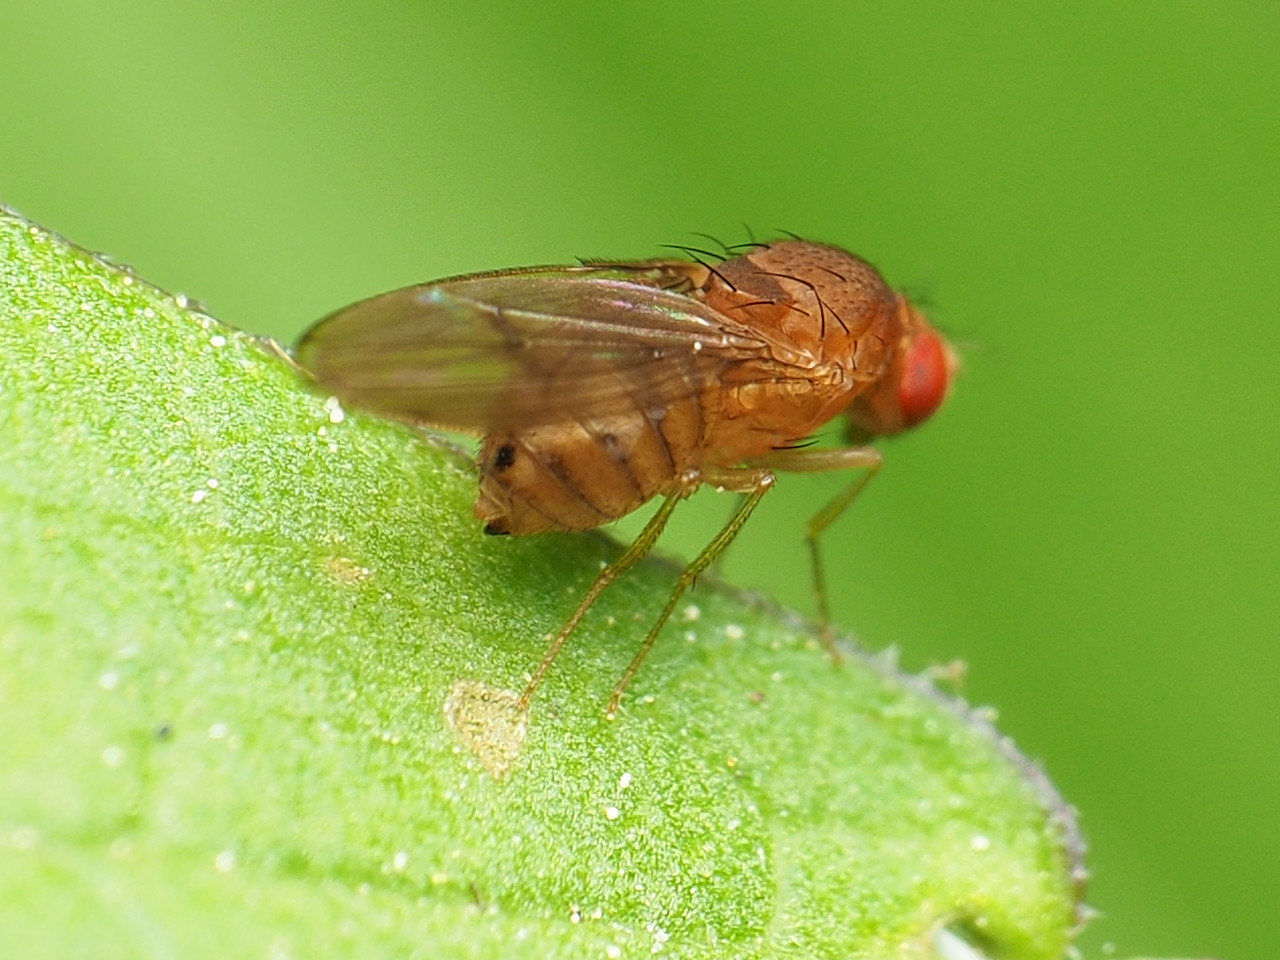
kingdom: Animalia
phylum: Arthropoda
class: Insecta
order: Diptera
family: Drosophilidae
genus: Drosophila
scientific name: Drosophila tripunctata
